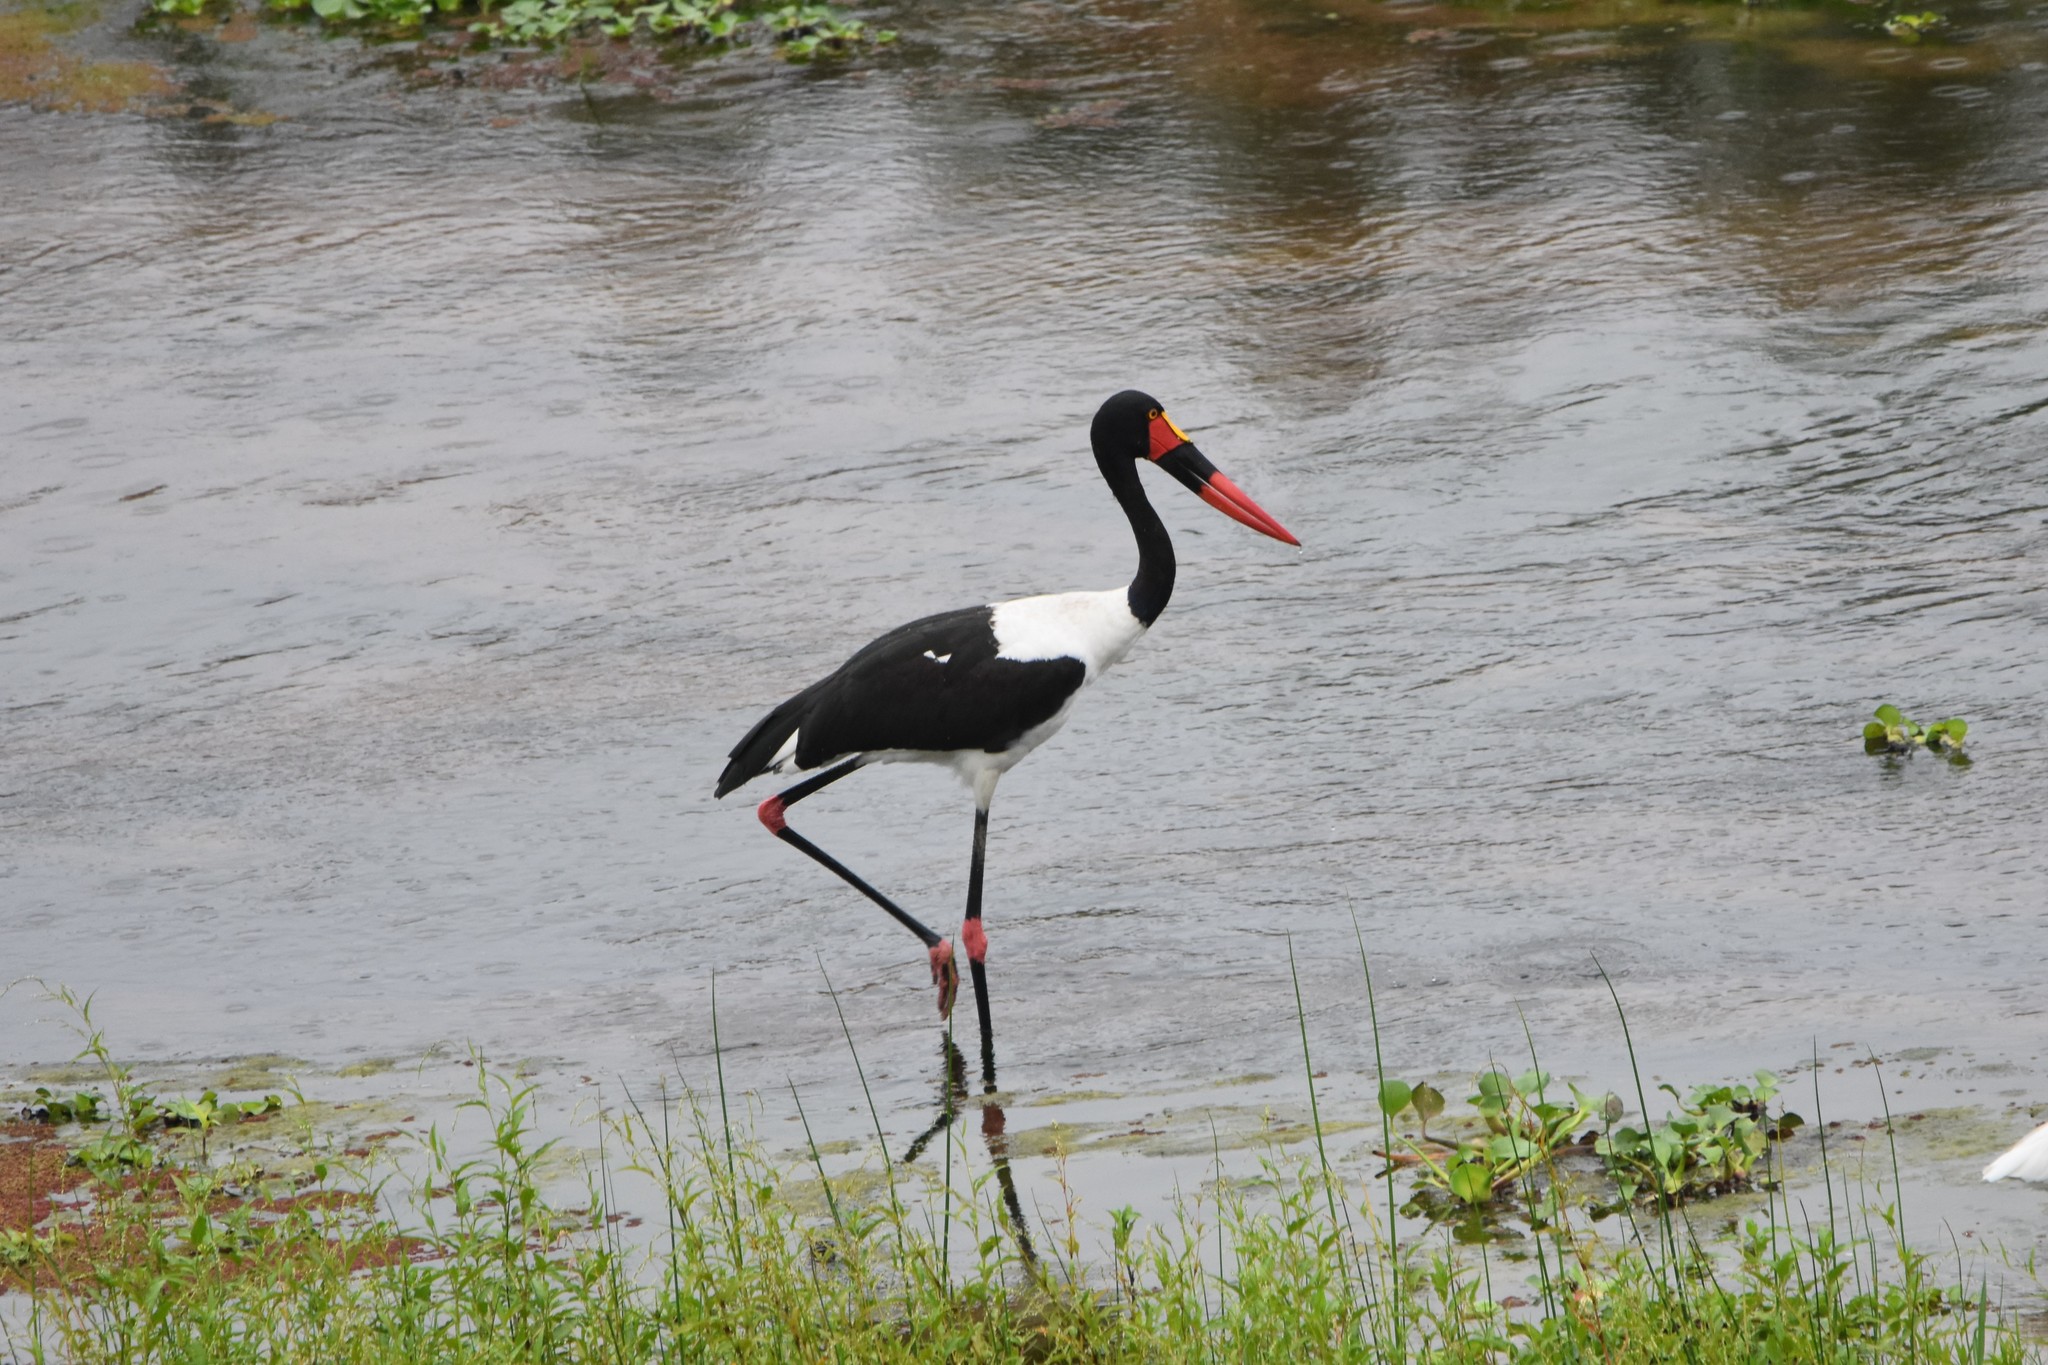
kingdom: Animalia
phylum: Chordata
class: Aves
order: Ciconiiformes
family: Ciconiidae
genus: Ephippiorhynchus
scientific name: Ephippiorhynchus senegalensis
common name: Saddle-billed stork
